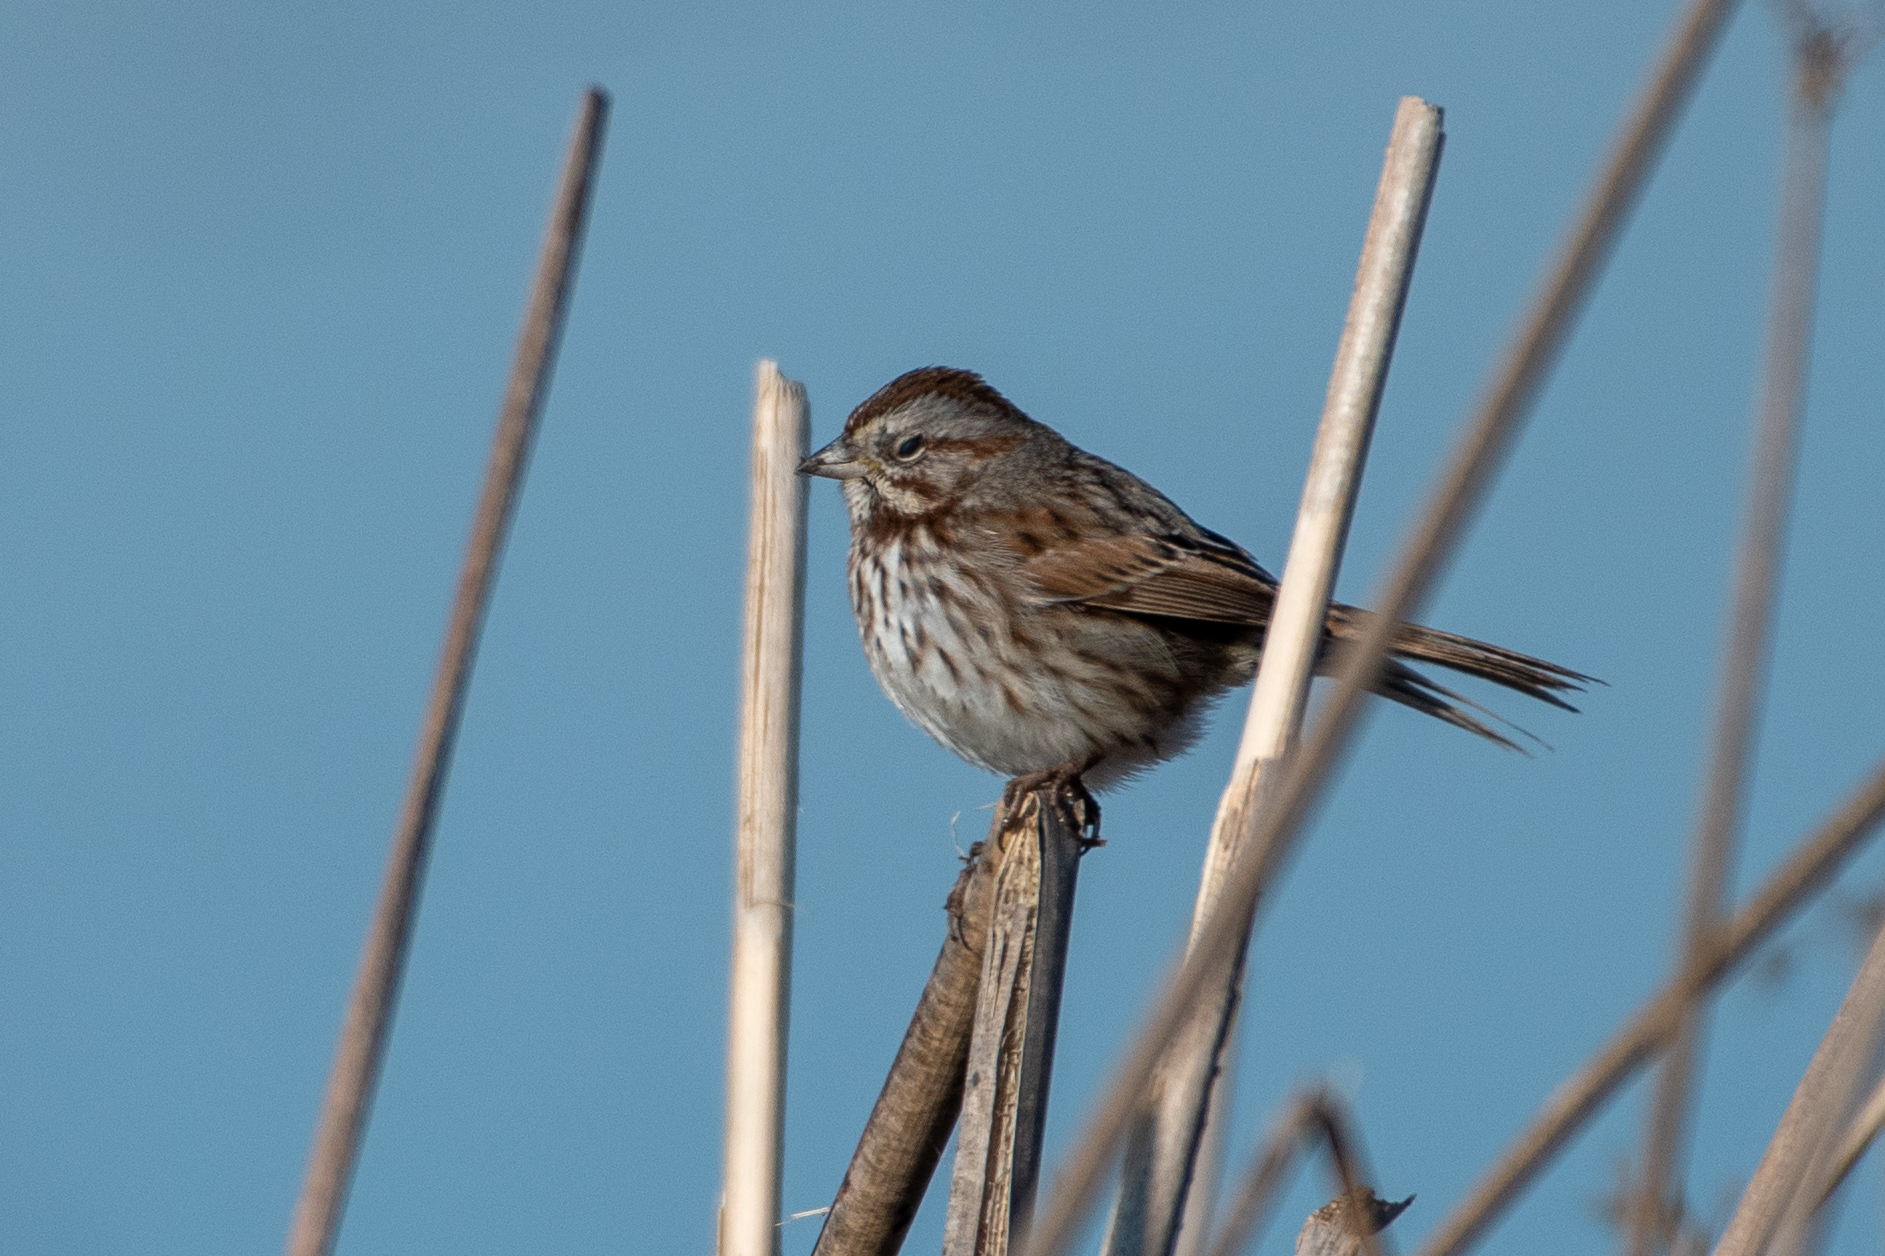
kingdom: Animalia
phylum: Chordata
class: Aves
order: Passeriformes
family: Passerellidae
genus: Melospiza
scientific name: Melospiza melodia
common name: Song sparrow
